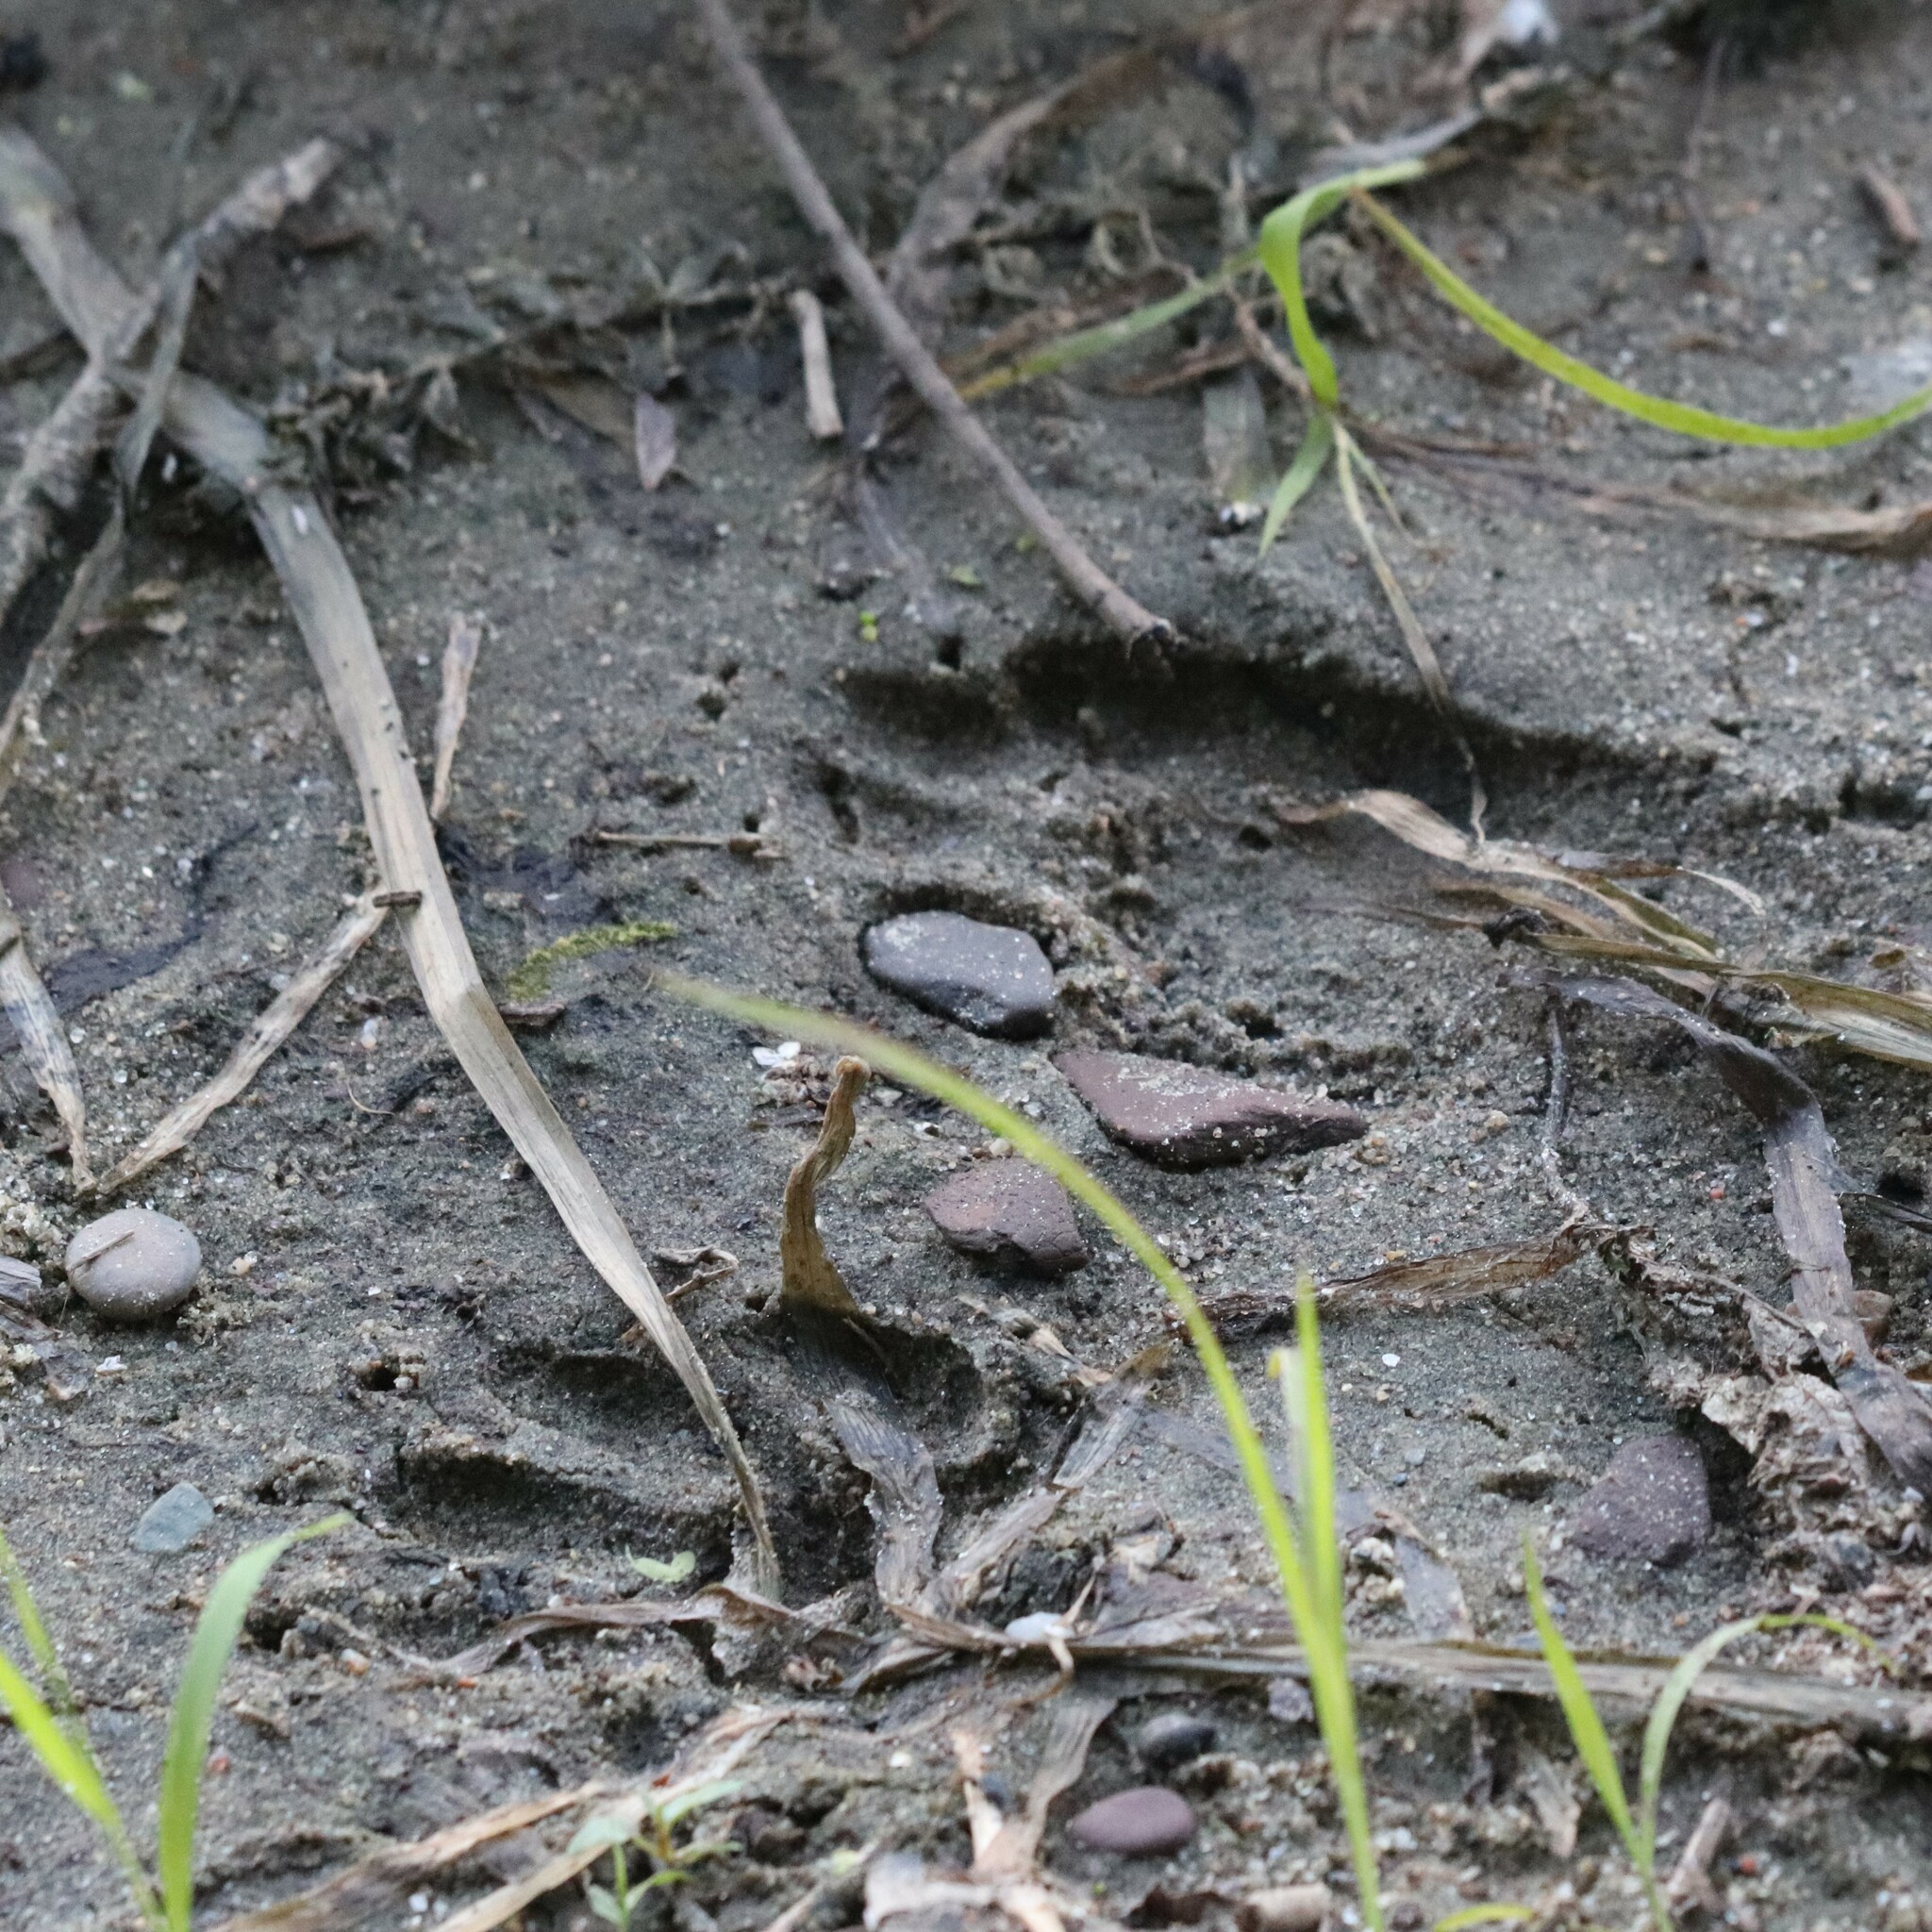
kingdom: Animalia
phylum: Chordata
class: Mammalia
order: Carnivora
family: Procyonidae
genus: Procyon
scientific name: Procyon lotor
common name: Raccoon
